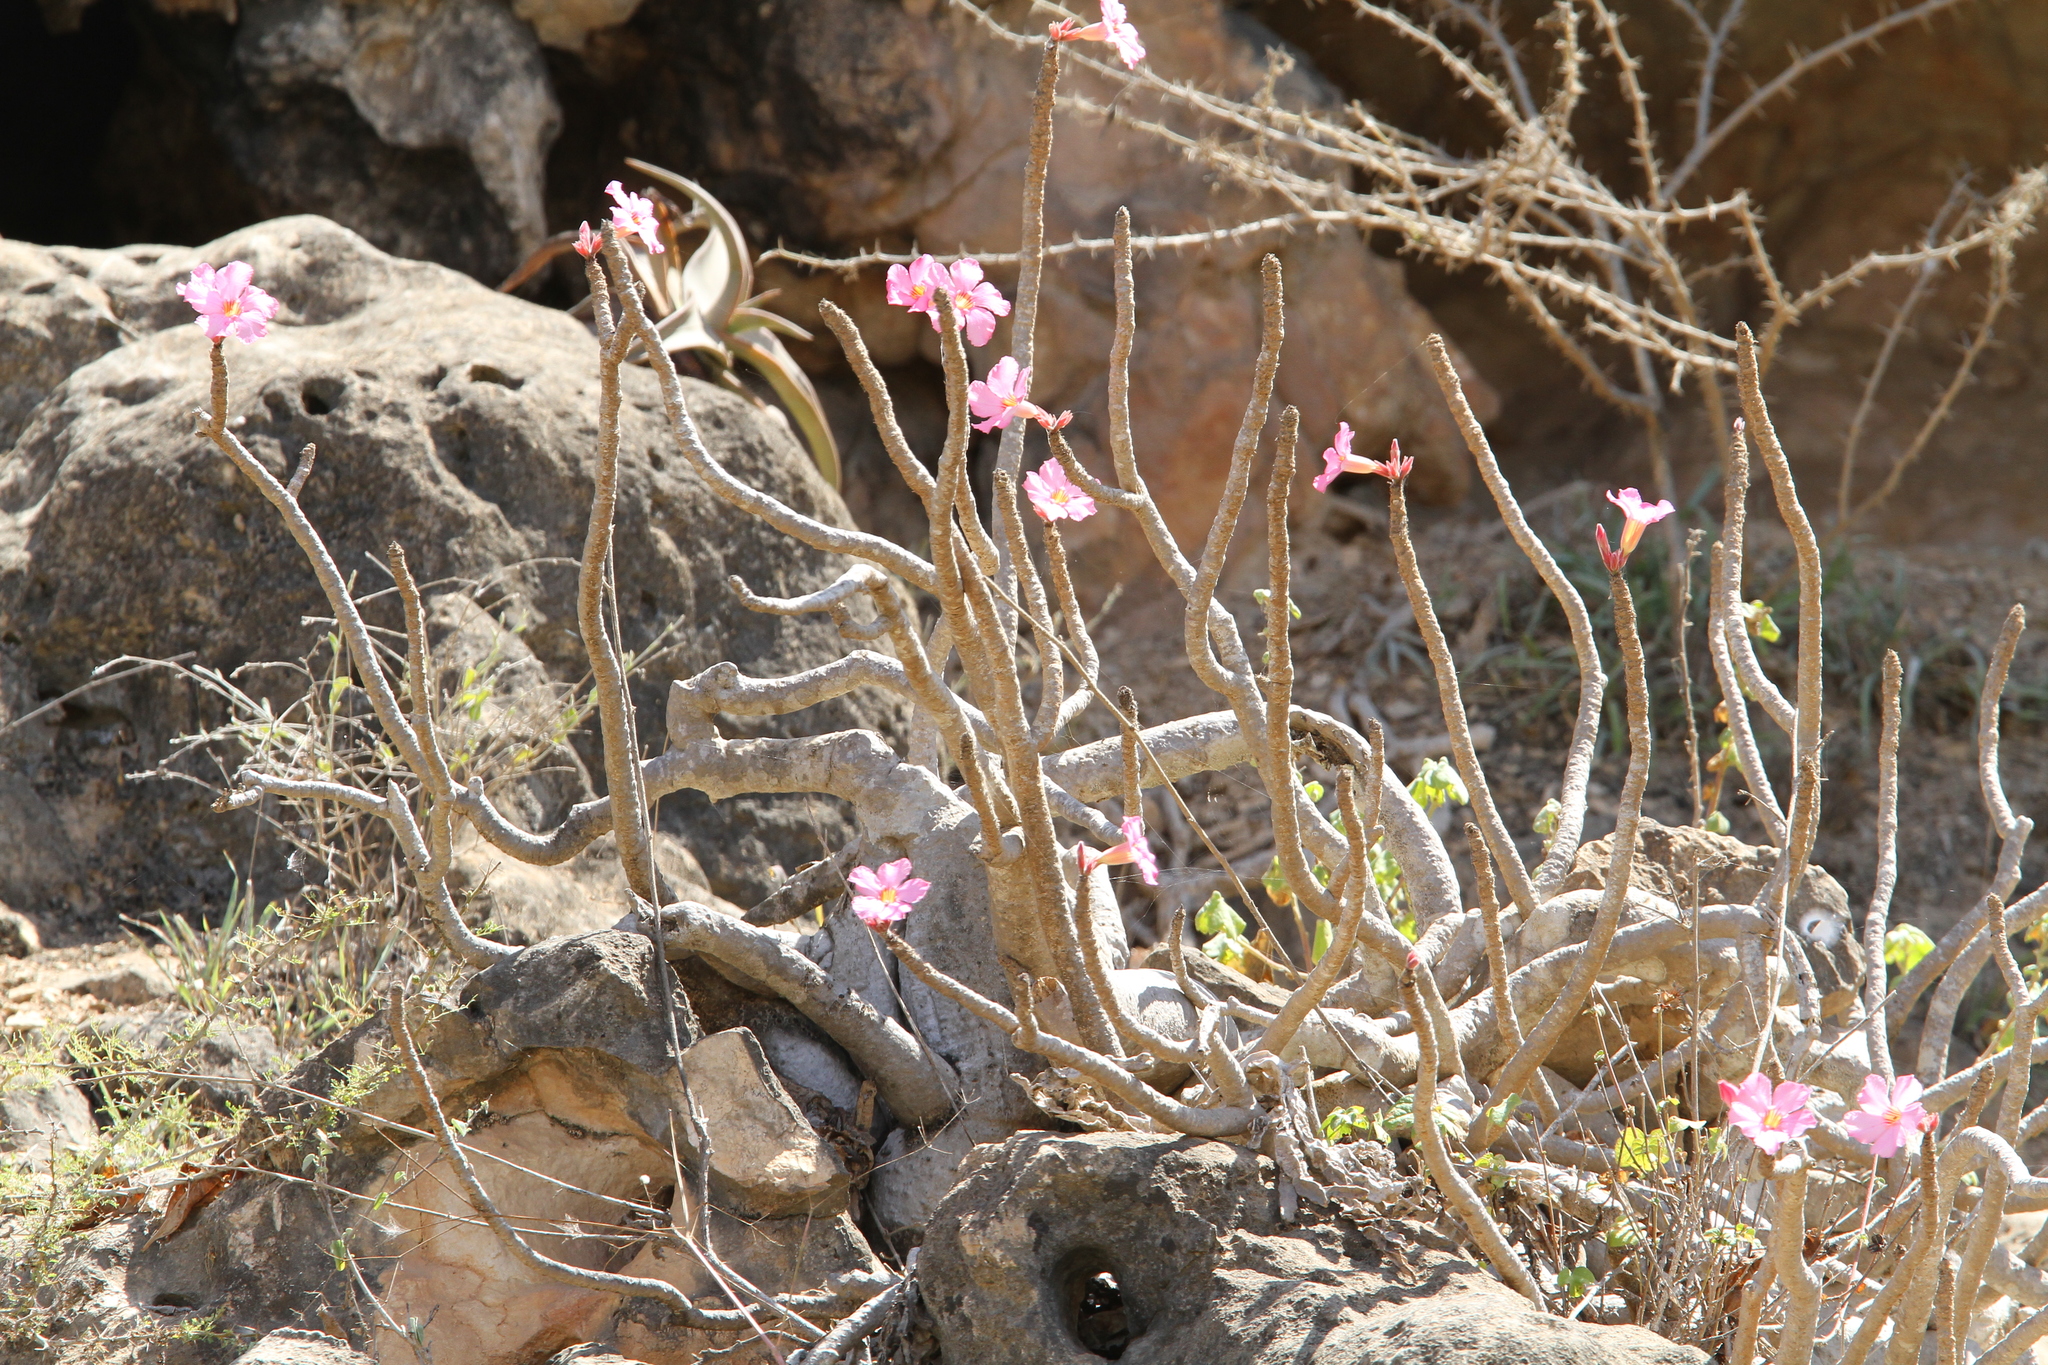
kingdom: Plantae
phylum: Tracheophyta
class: Magnoliopsida
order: Gentianales
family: Apocynaceae
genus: Adenium
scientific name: Adenium obesum
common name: Desert-rose
